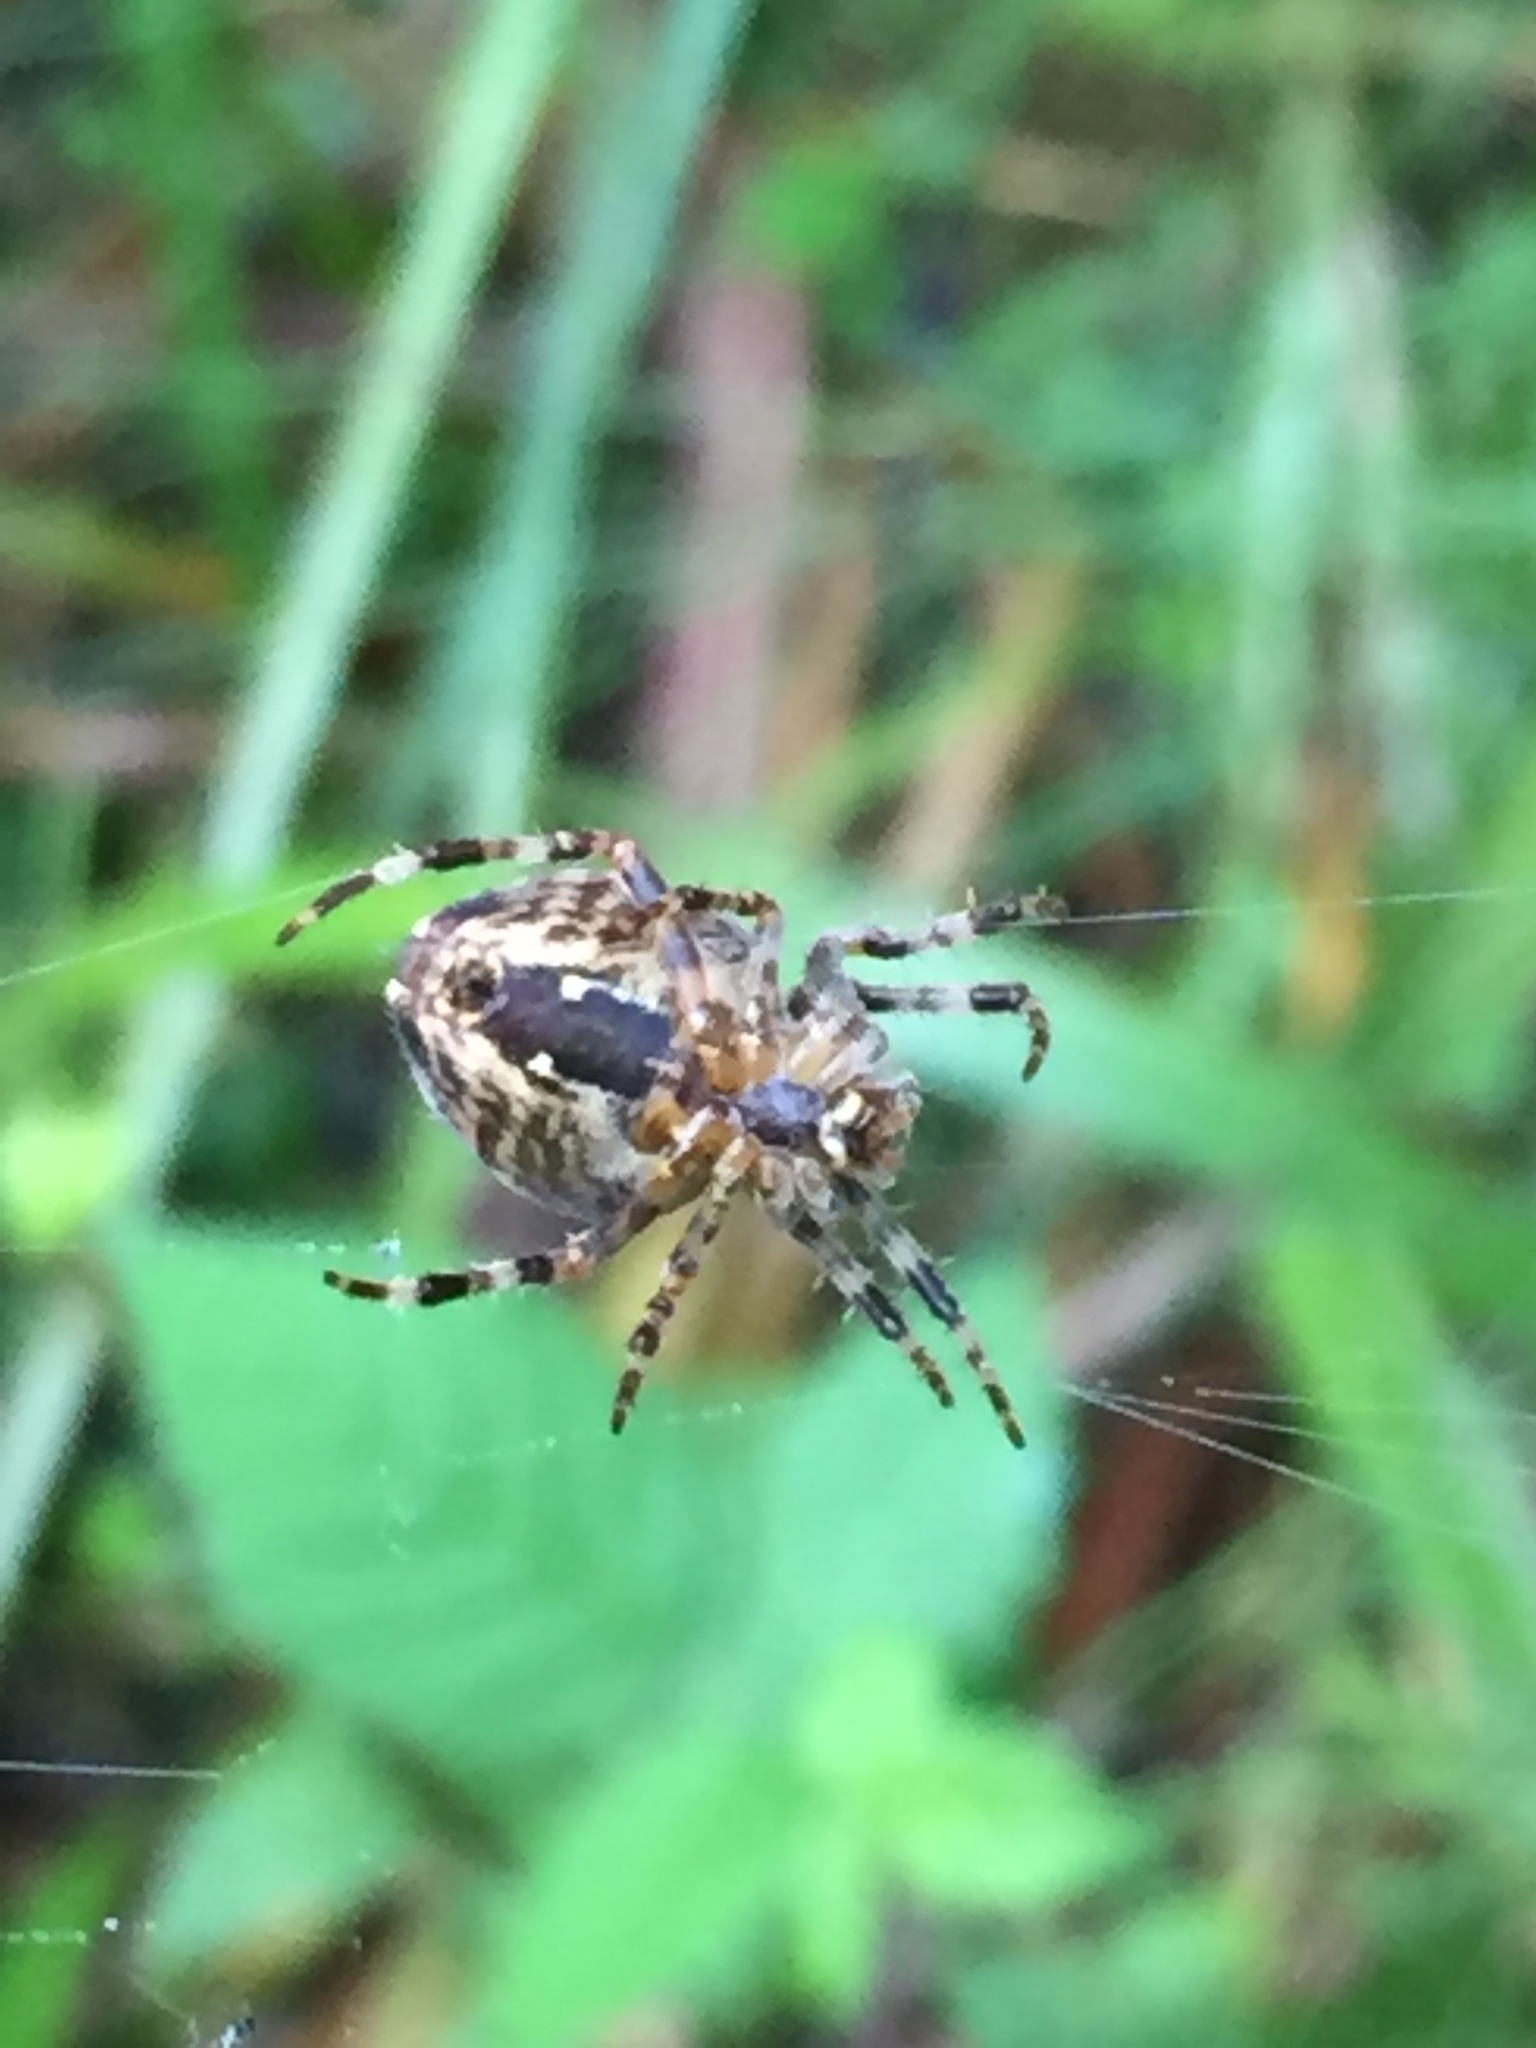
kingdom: Animalia
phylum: Arthropoda
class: Arachnida
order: Araneae
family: Araneidae
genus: Araneus
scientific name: Araneus diadematus
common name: Cross orbweaver
